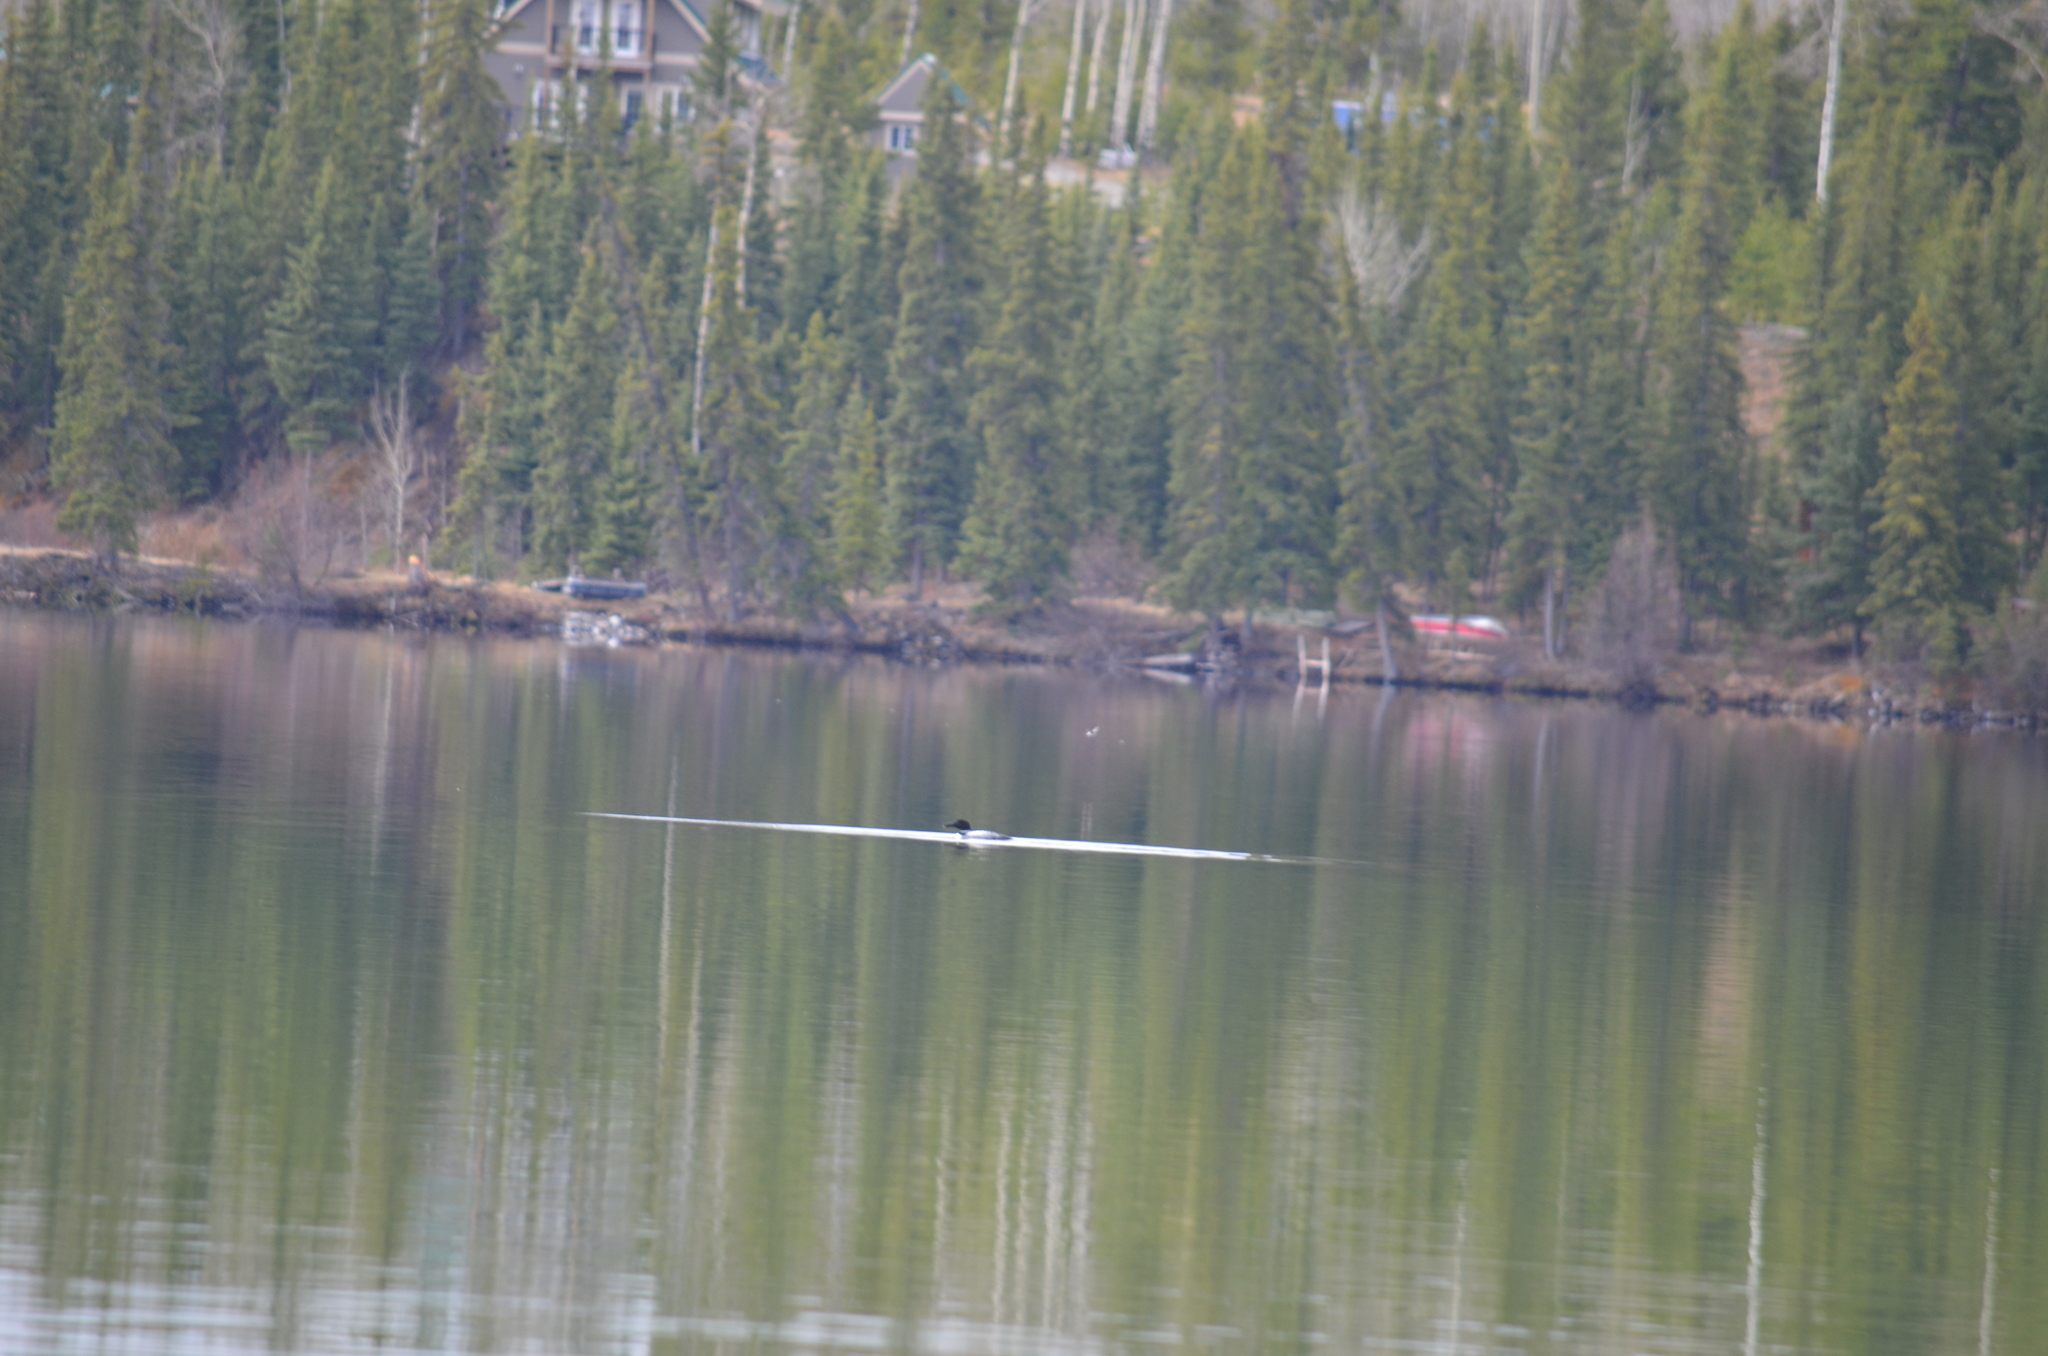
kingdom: Animalia
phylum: Chordata
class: Aves
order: Gaviiformes
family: Gaviidae
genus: Gavia
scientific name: Gavia immer
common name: Common loon
